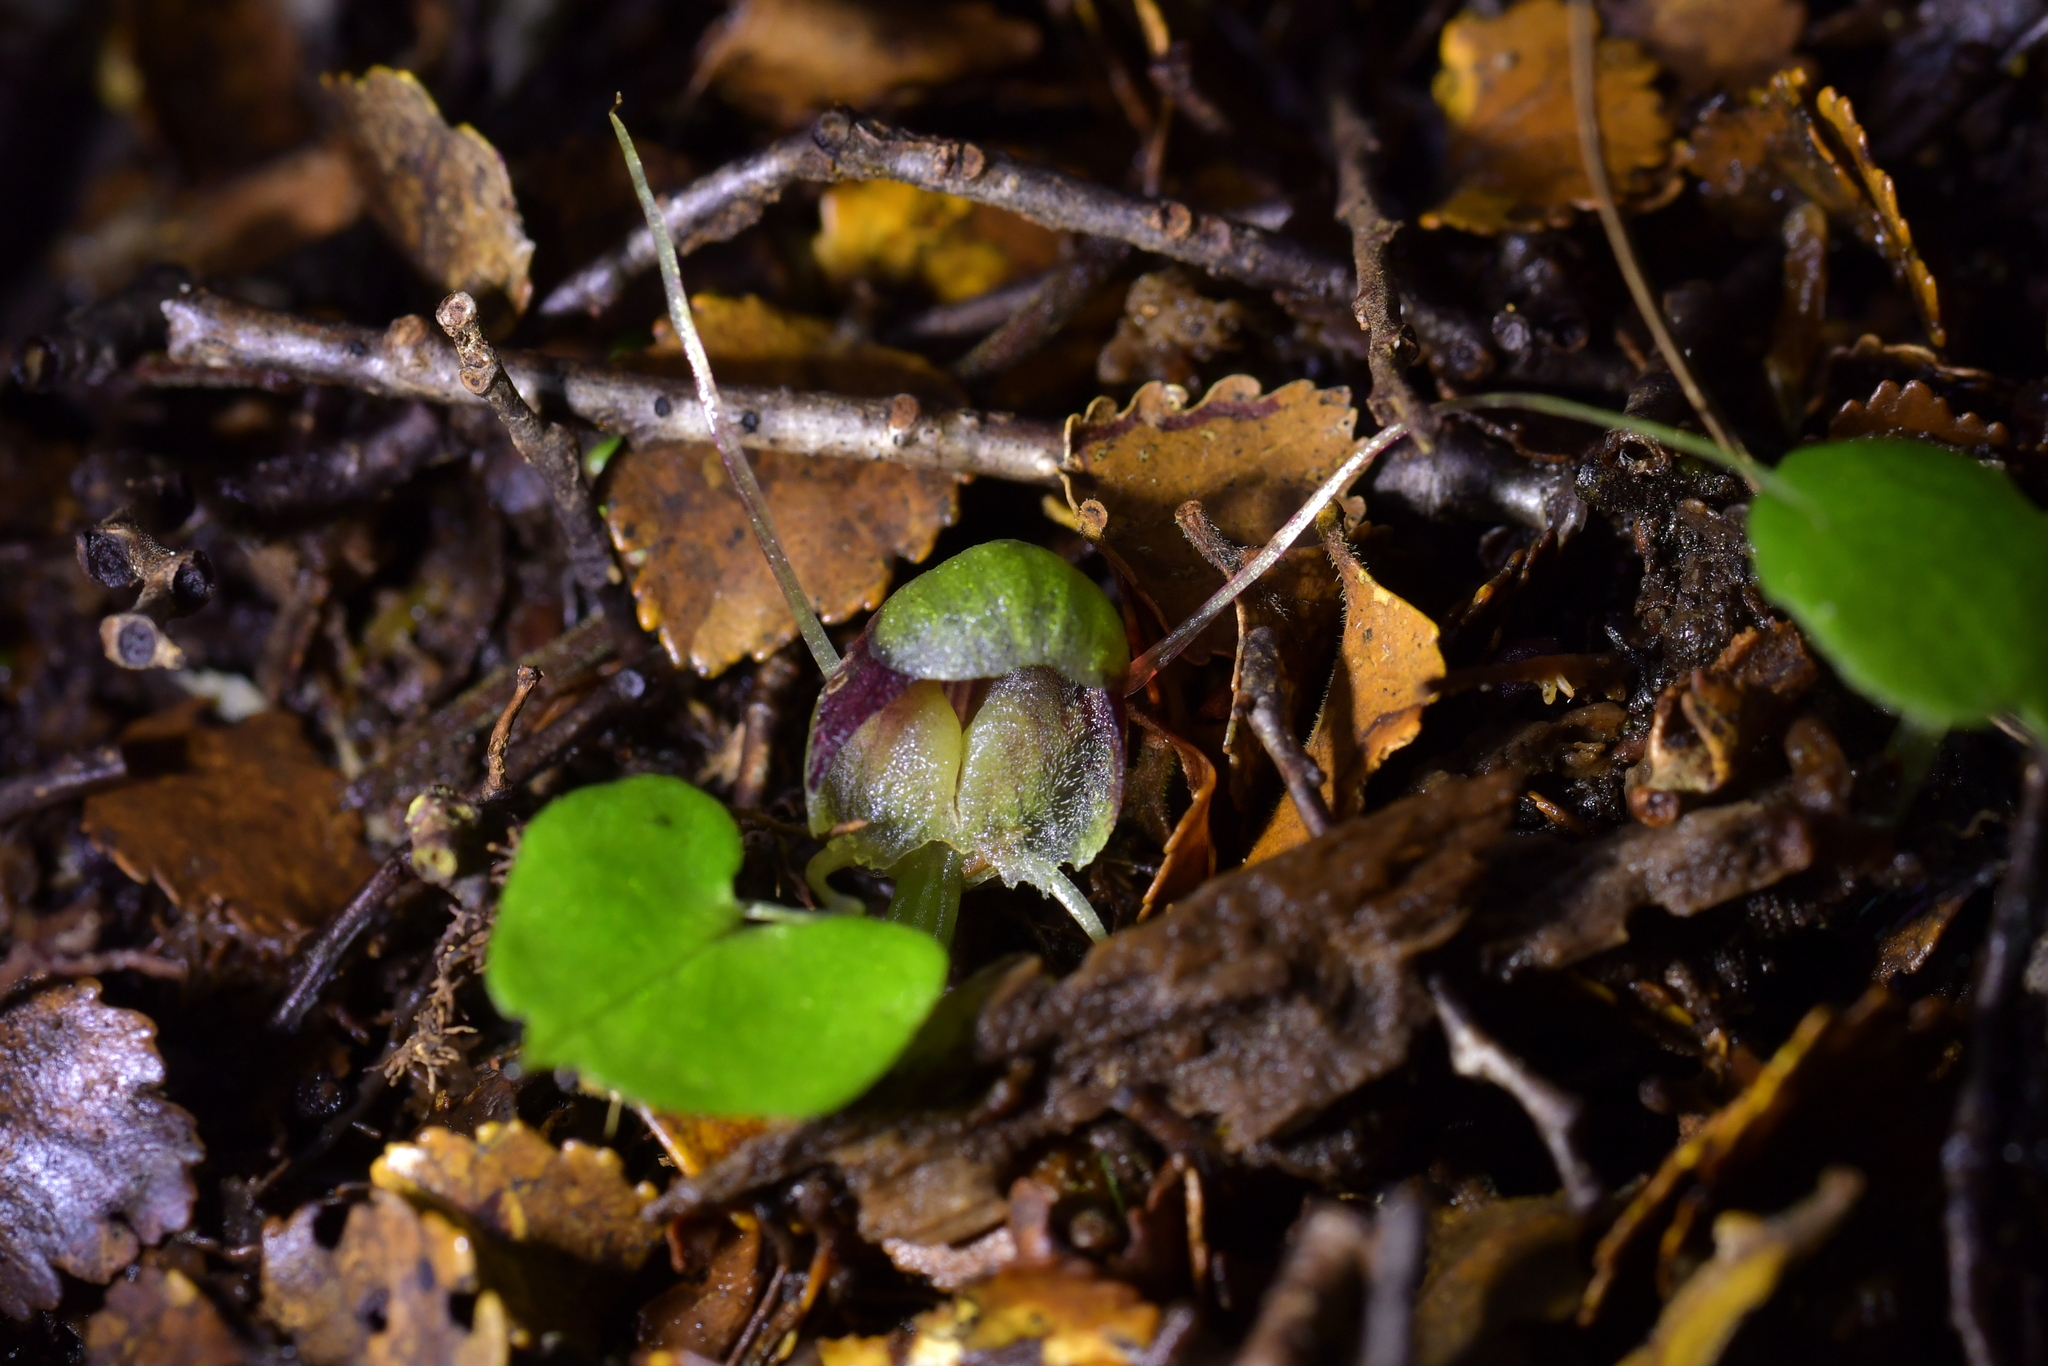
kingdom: Plantae
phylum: Tracheophyta
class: Liliopsida
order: Asparagales
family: Orchidaceae
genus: Corybas
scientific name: Corybas vitreus
